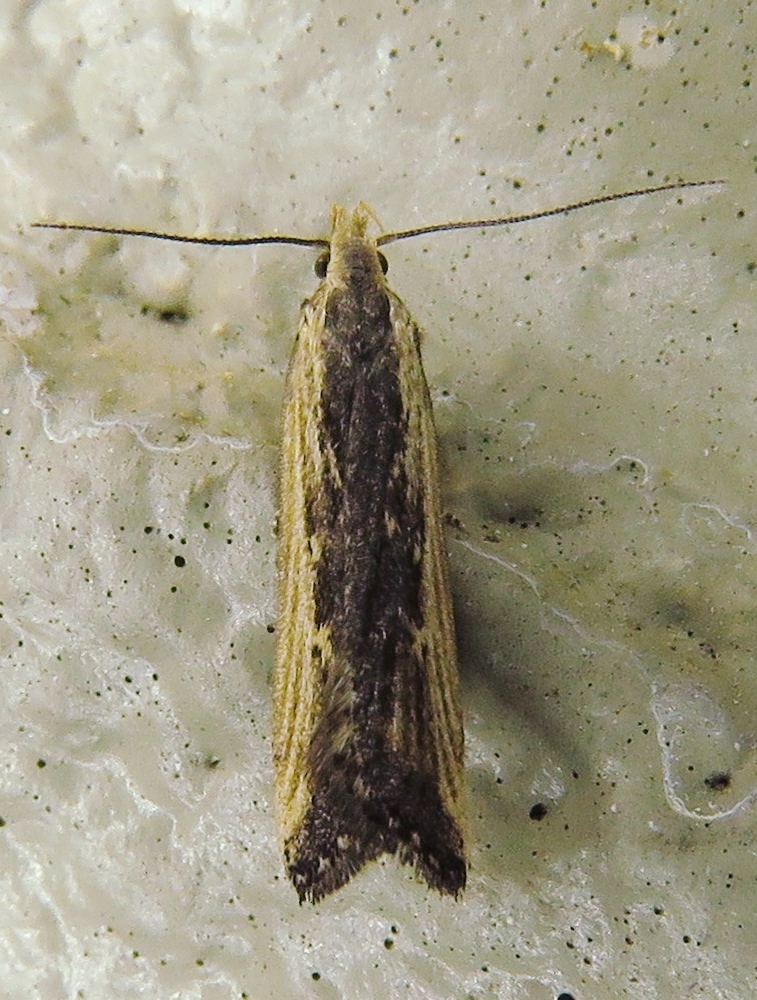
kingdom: Animalia
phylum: Arthropoda
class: Insecta
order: Lepidoptera
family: Gelechiidae
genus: Dichomeris
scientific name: Dichomeris simpliciella
